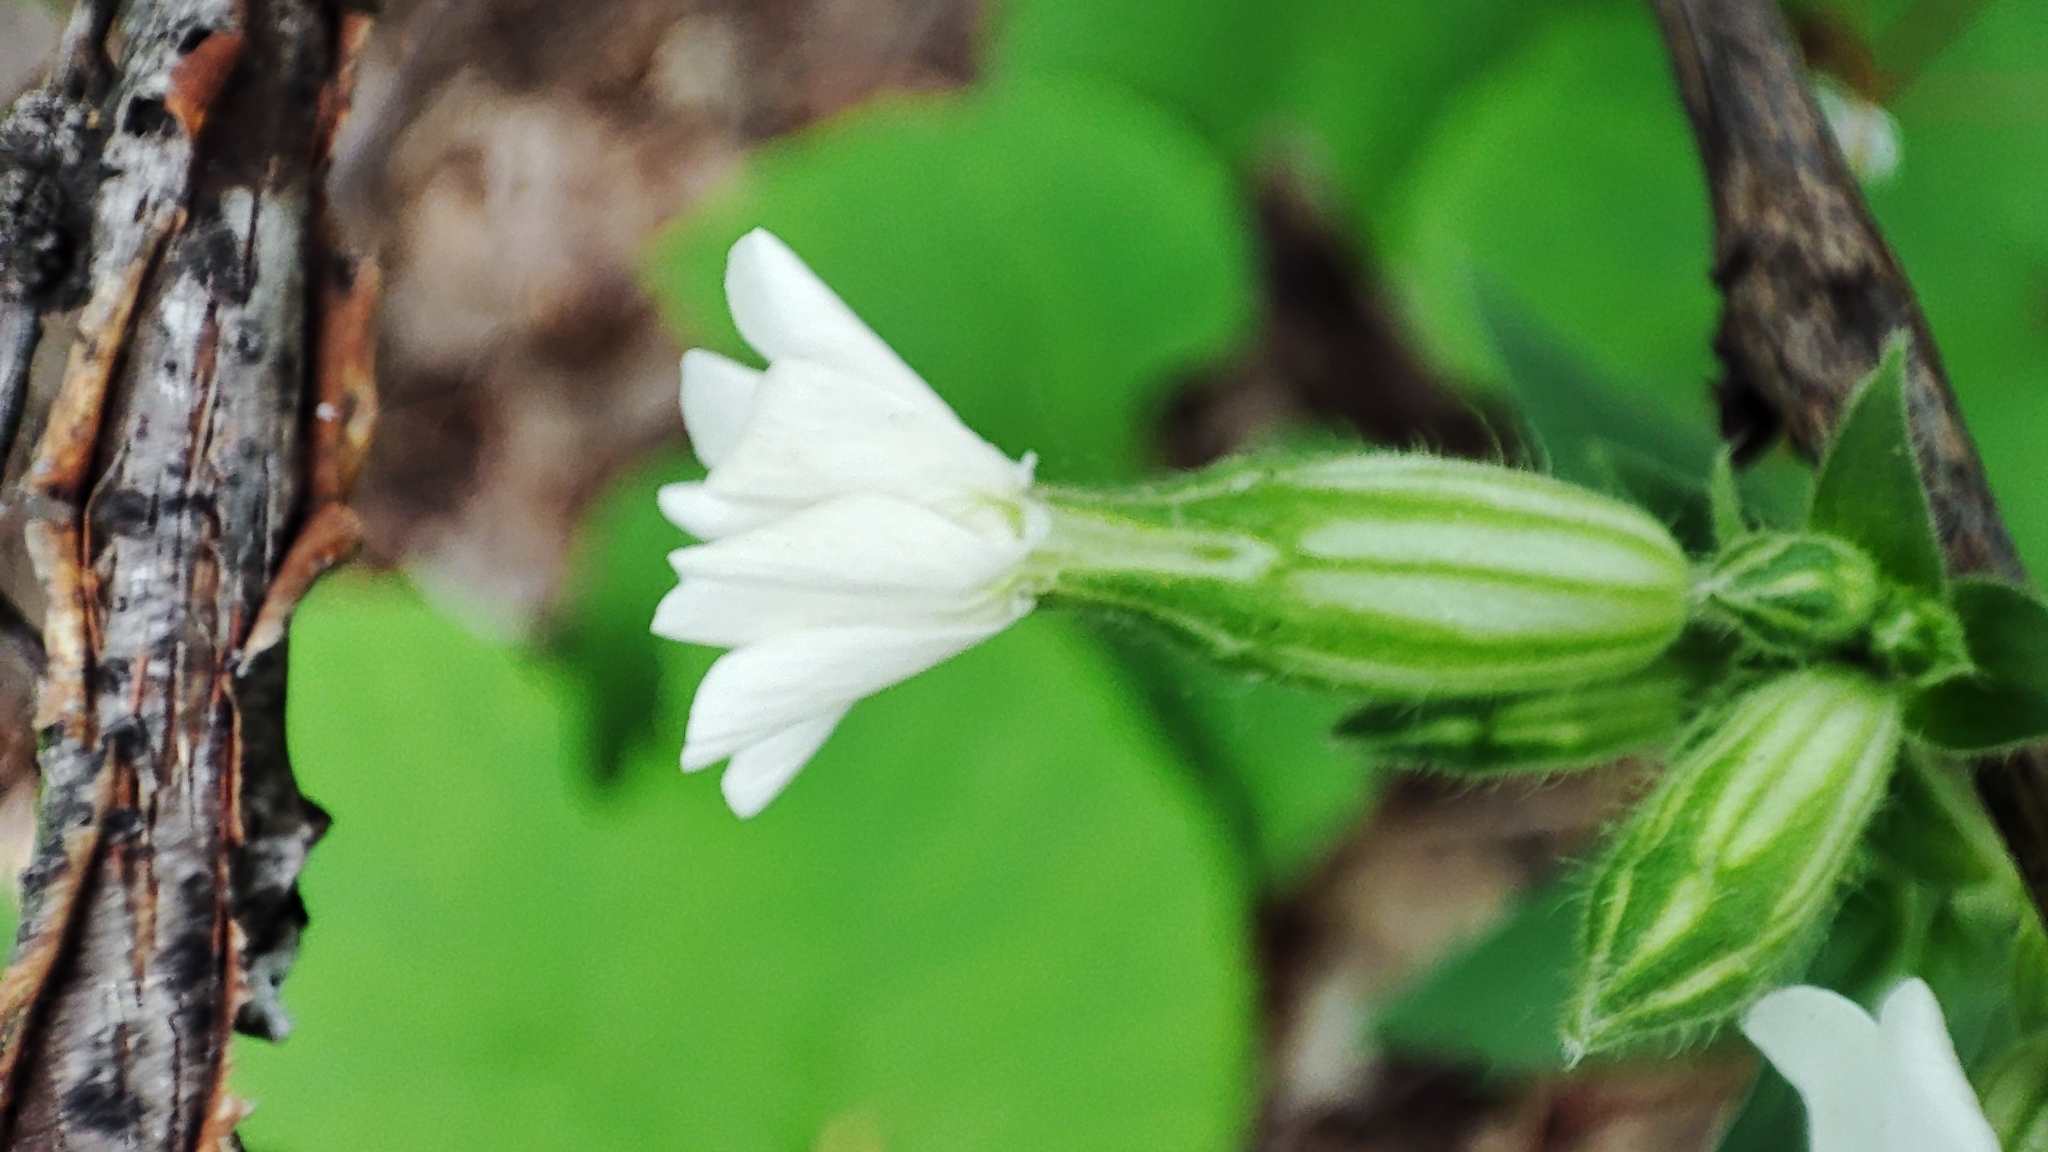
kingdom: Plantae
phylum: Tracheophyta
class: Magnoliopsida
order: Caryophyllales
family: Caryophyllaceae
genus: Silene
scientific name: Silene latifolia
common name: White campion
